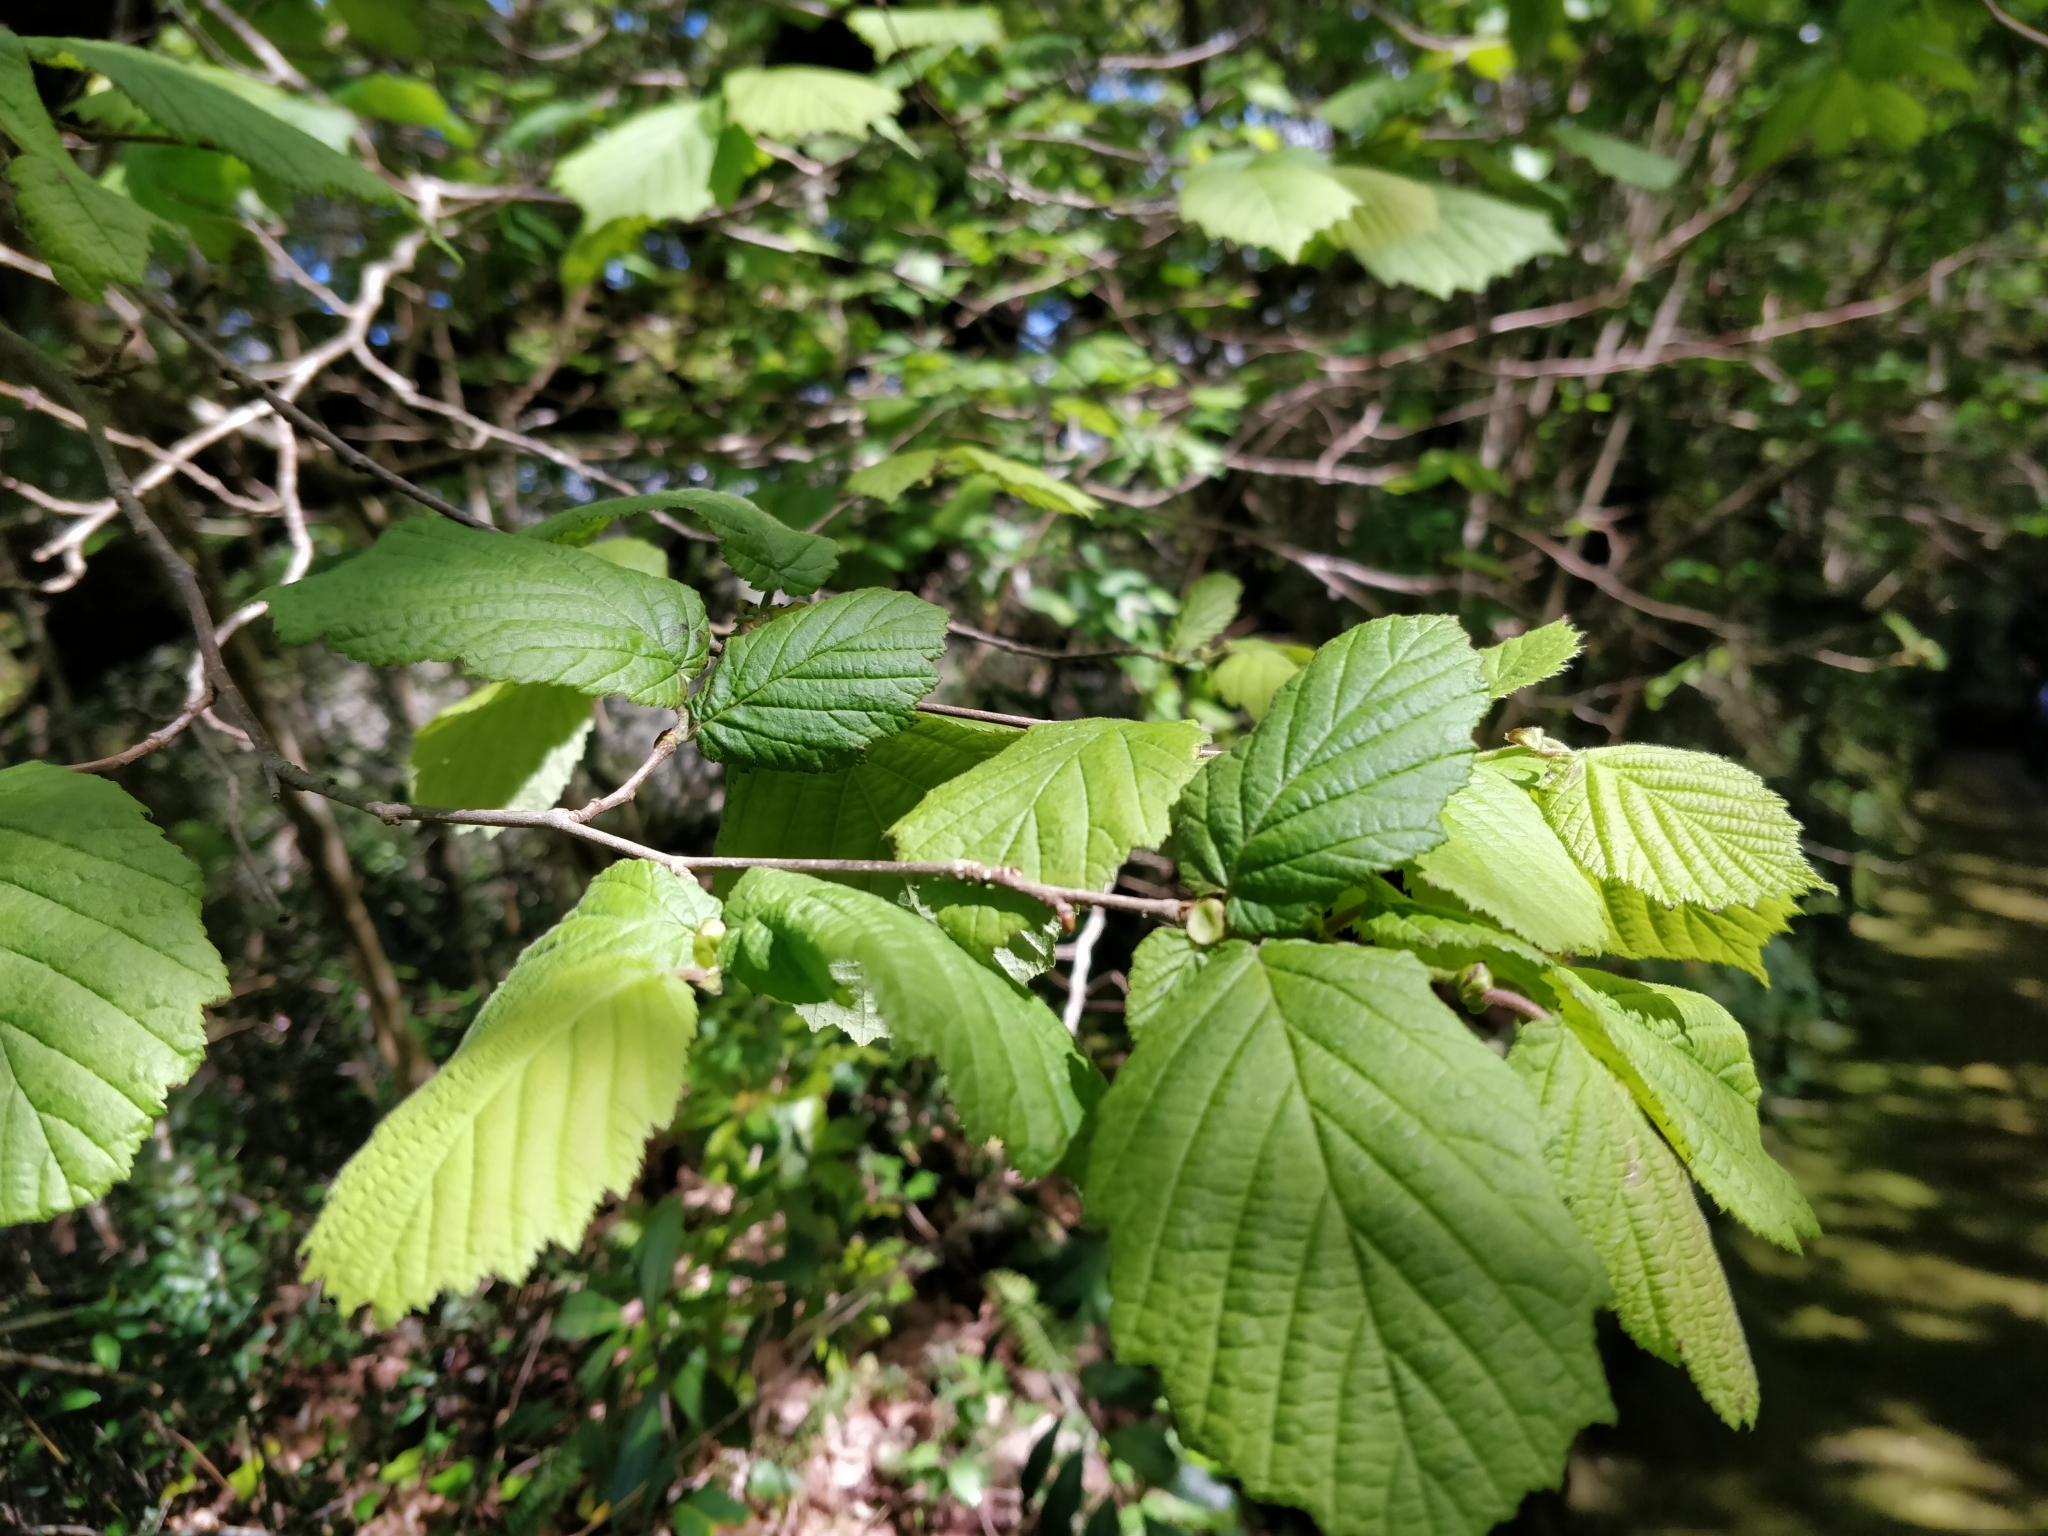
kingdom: Plantae
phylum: Tracheophyta
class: Magnoliopsida
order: Fagales
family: Betulaceae
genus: Corylus
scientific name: Corylus avellana
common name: European hazel
